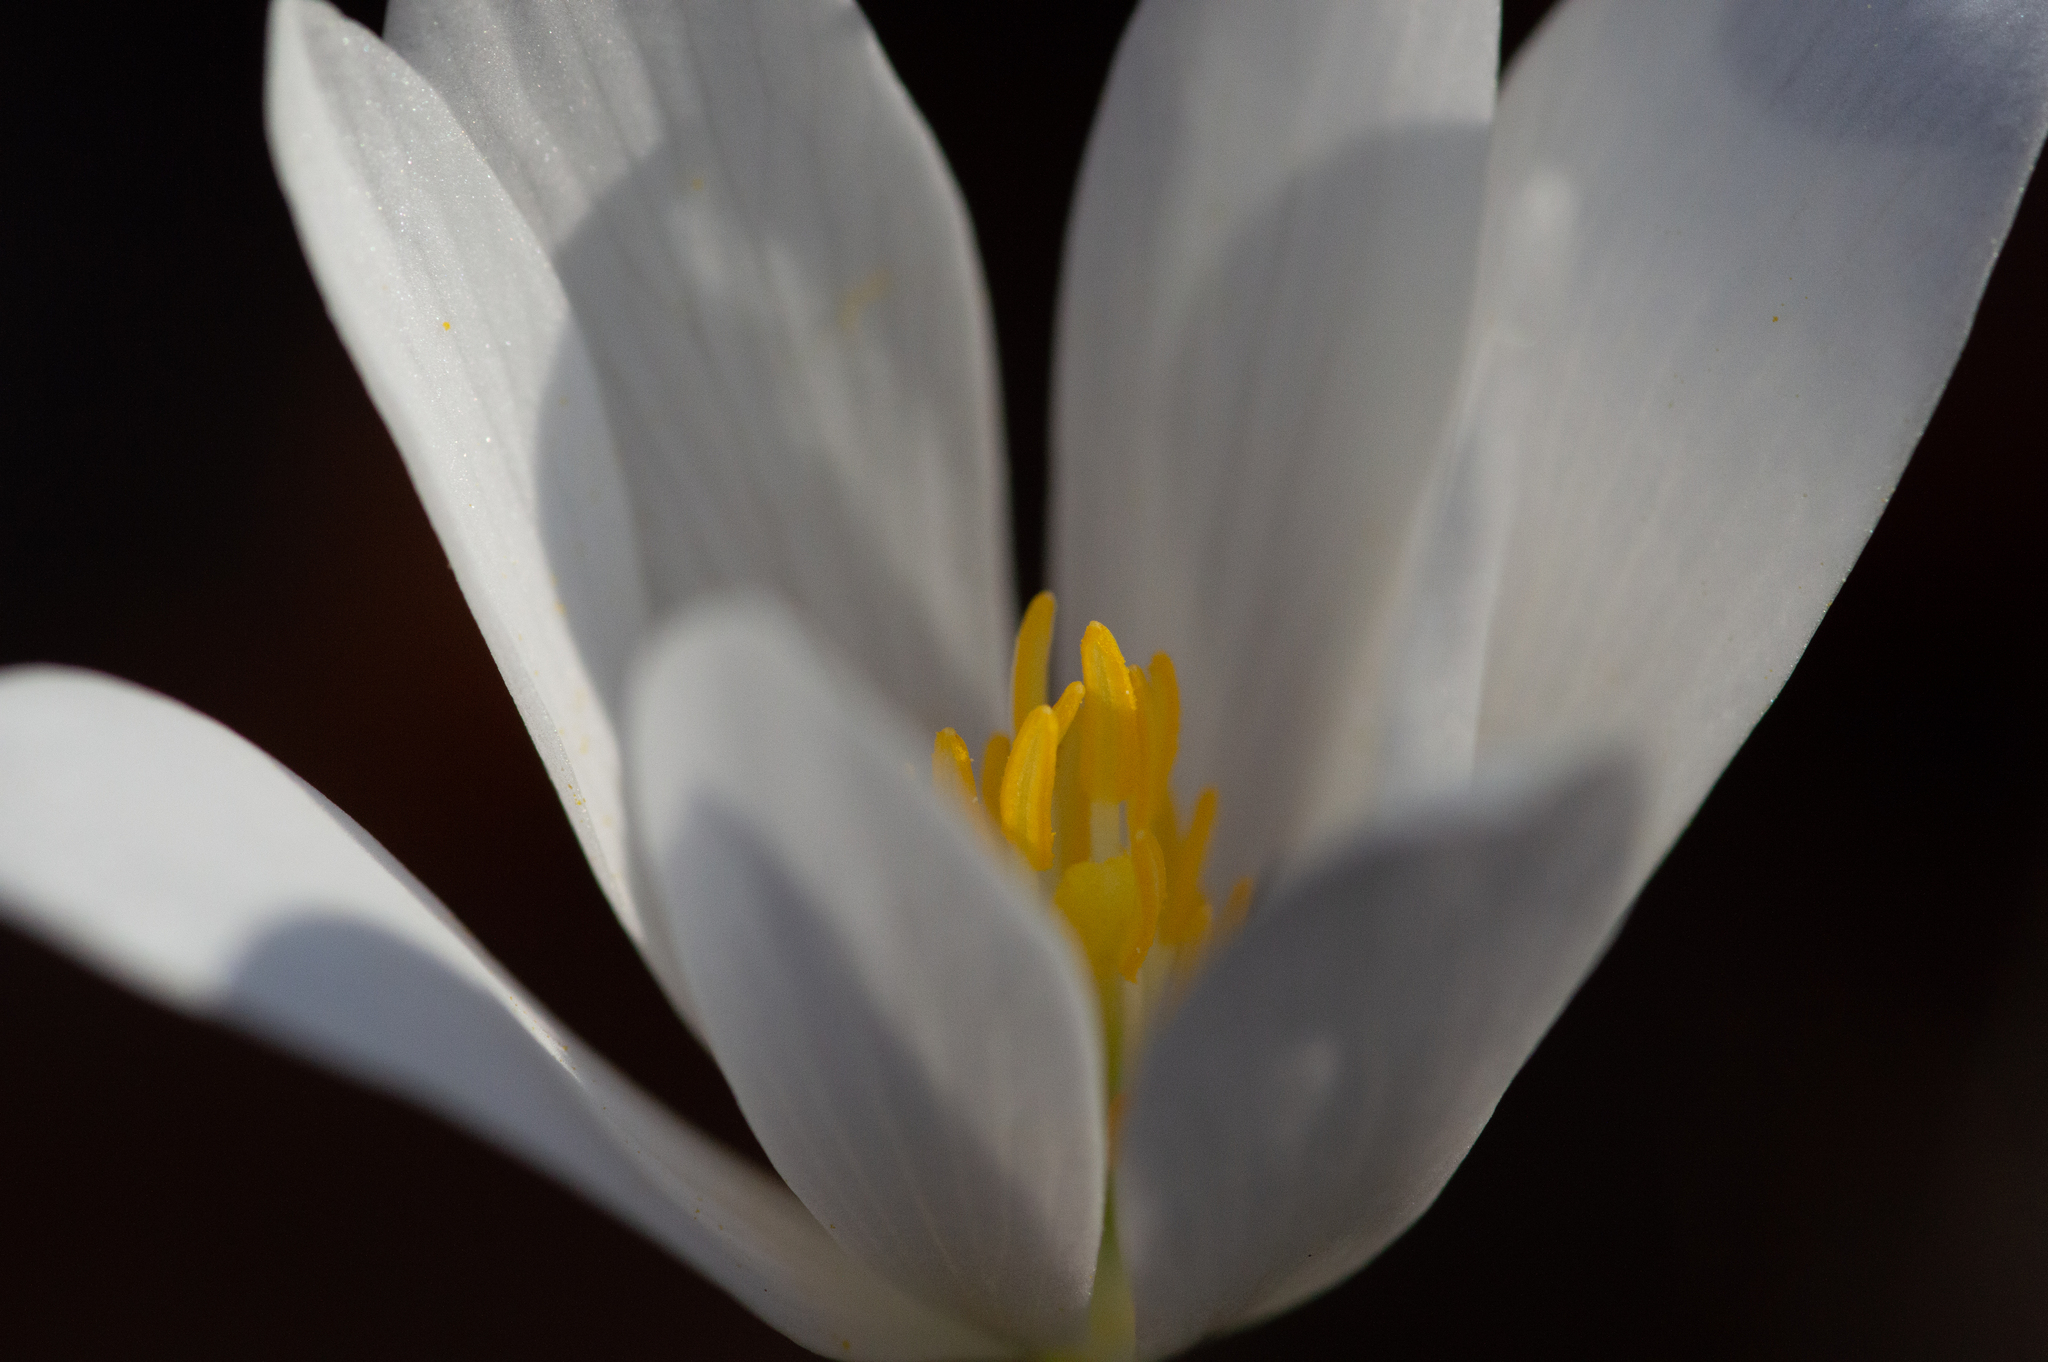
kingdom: Plantae
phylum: Tracheophyta
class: Magnoliopsida
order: Ranunculales
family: Papaveraceae
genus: Sanguinaria
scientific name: Sanguinaria canadensis
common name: Bloodroot
